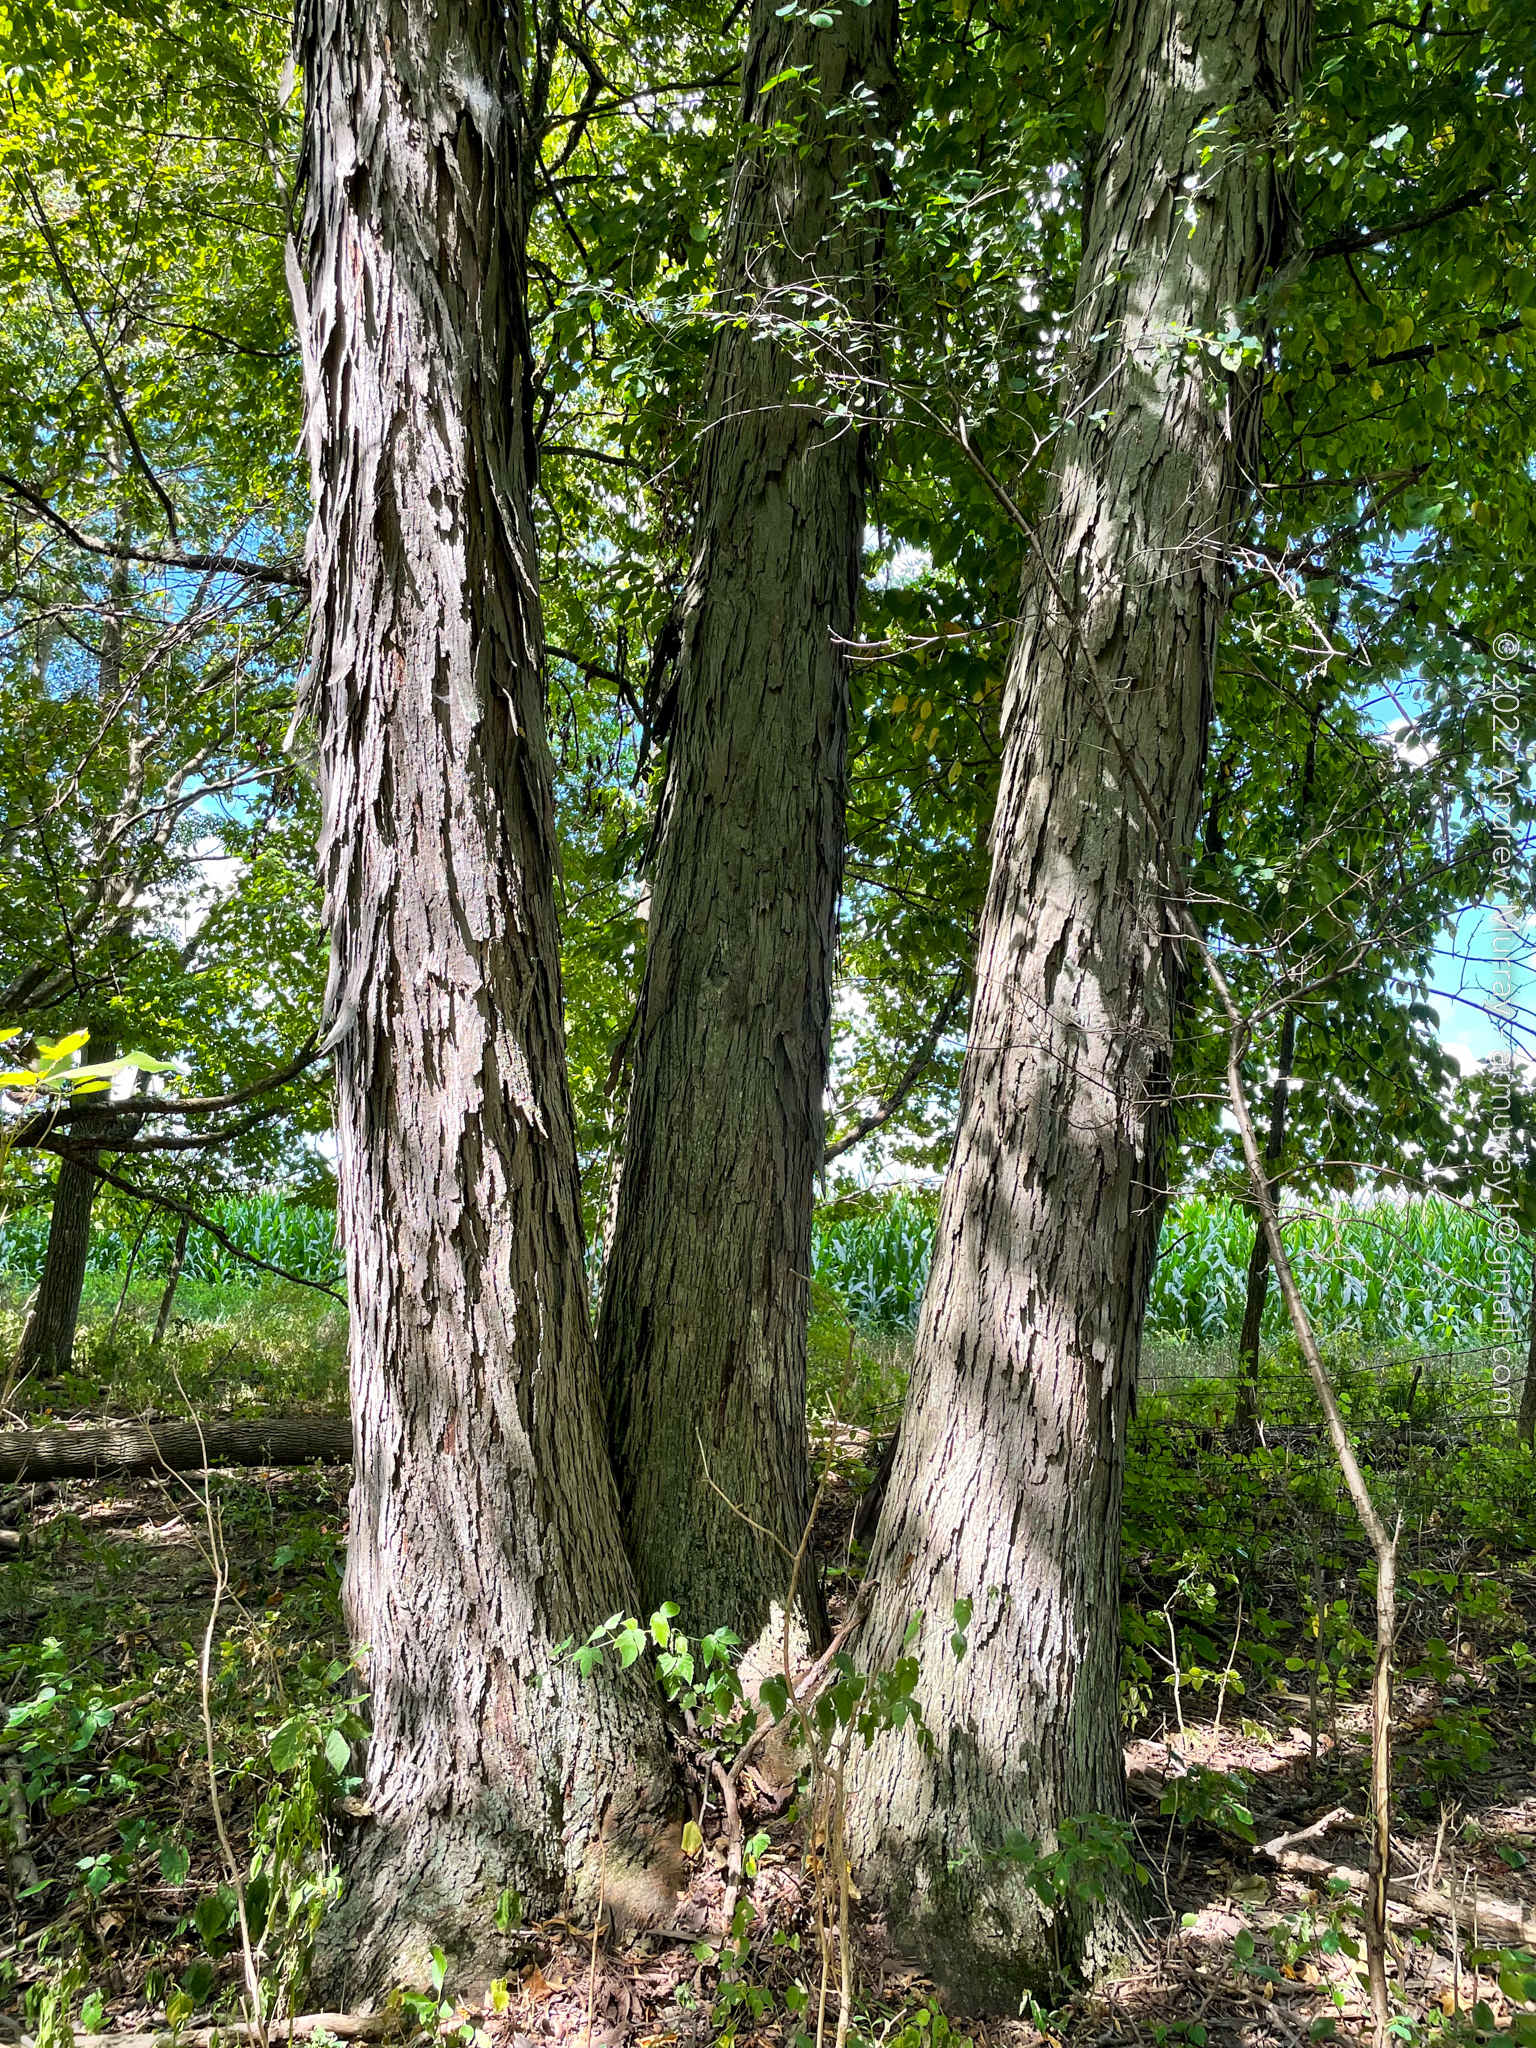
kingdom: Plantae
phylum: Tracheophyta
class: Magnoliopsida
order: Fagales
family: Juglandaceae
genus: Carya
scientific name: Carya ovata
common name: Shagbark hickory
